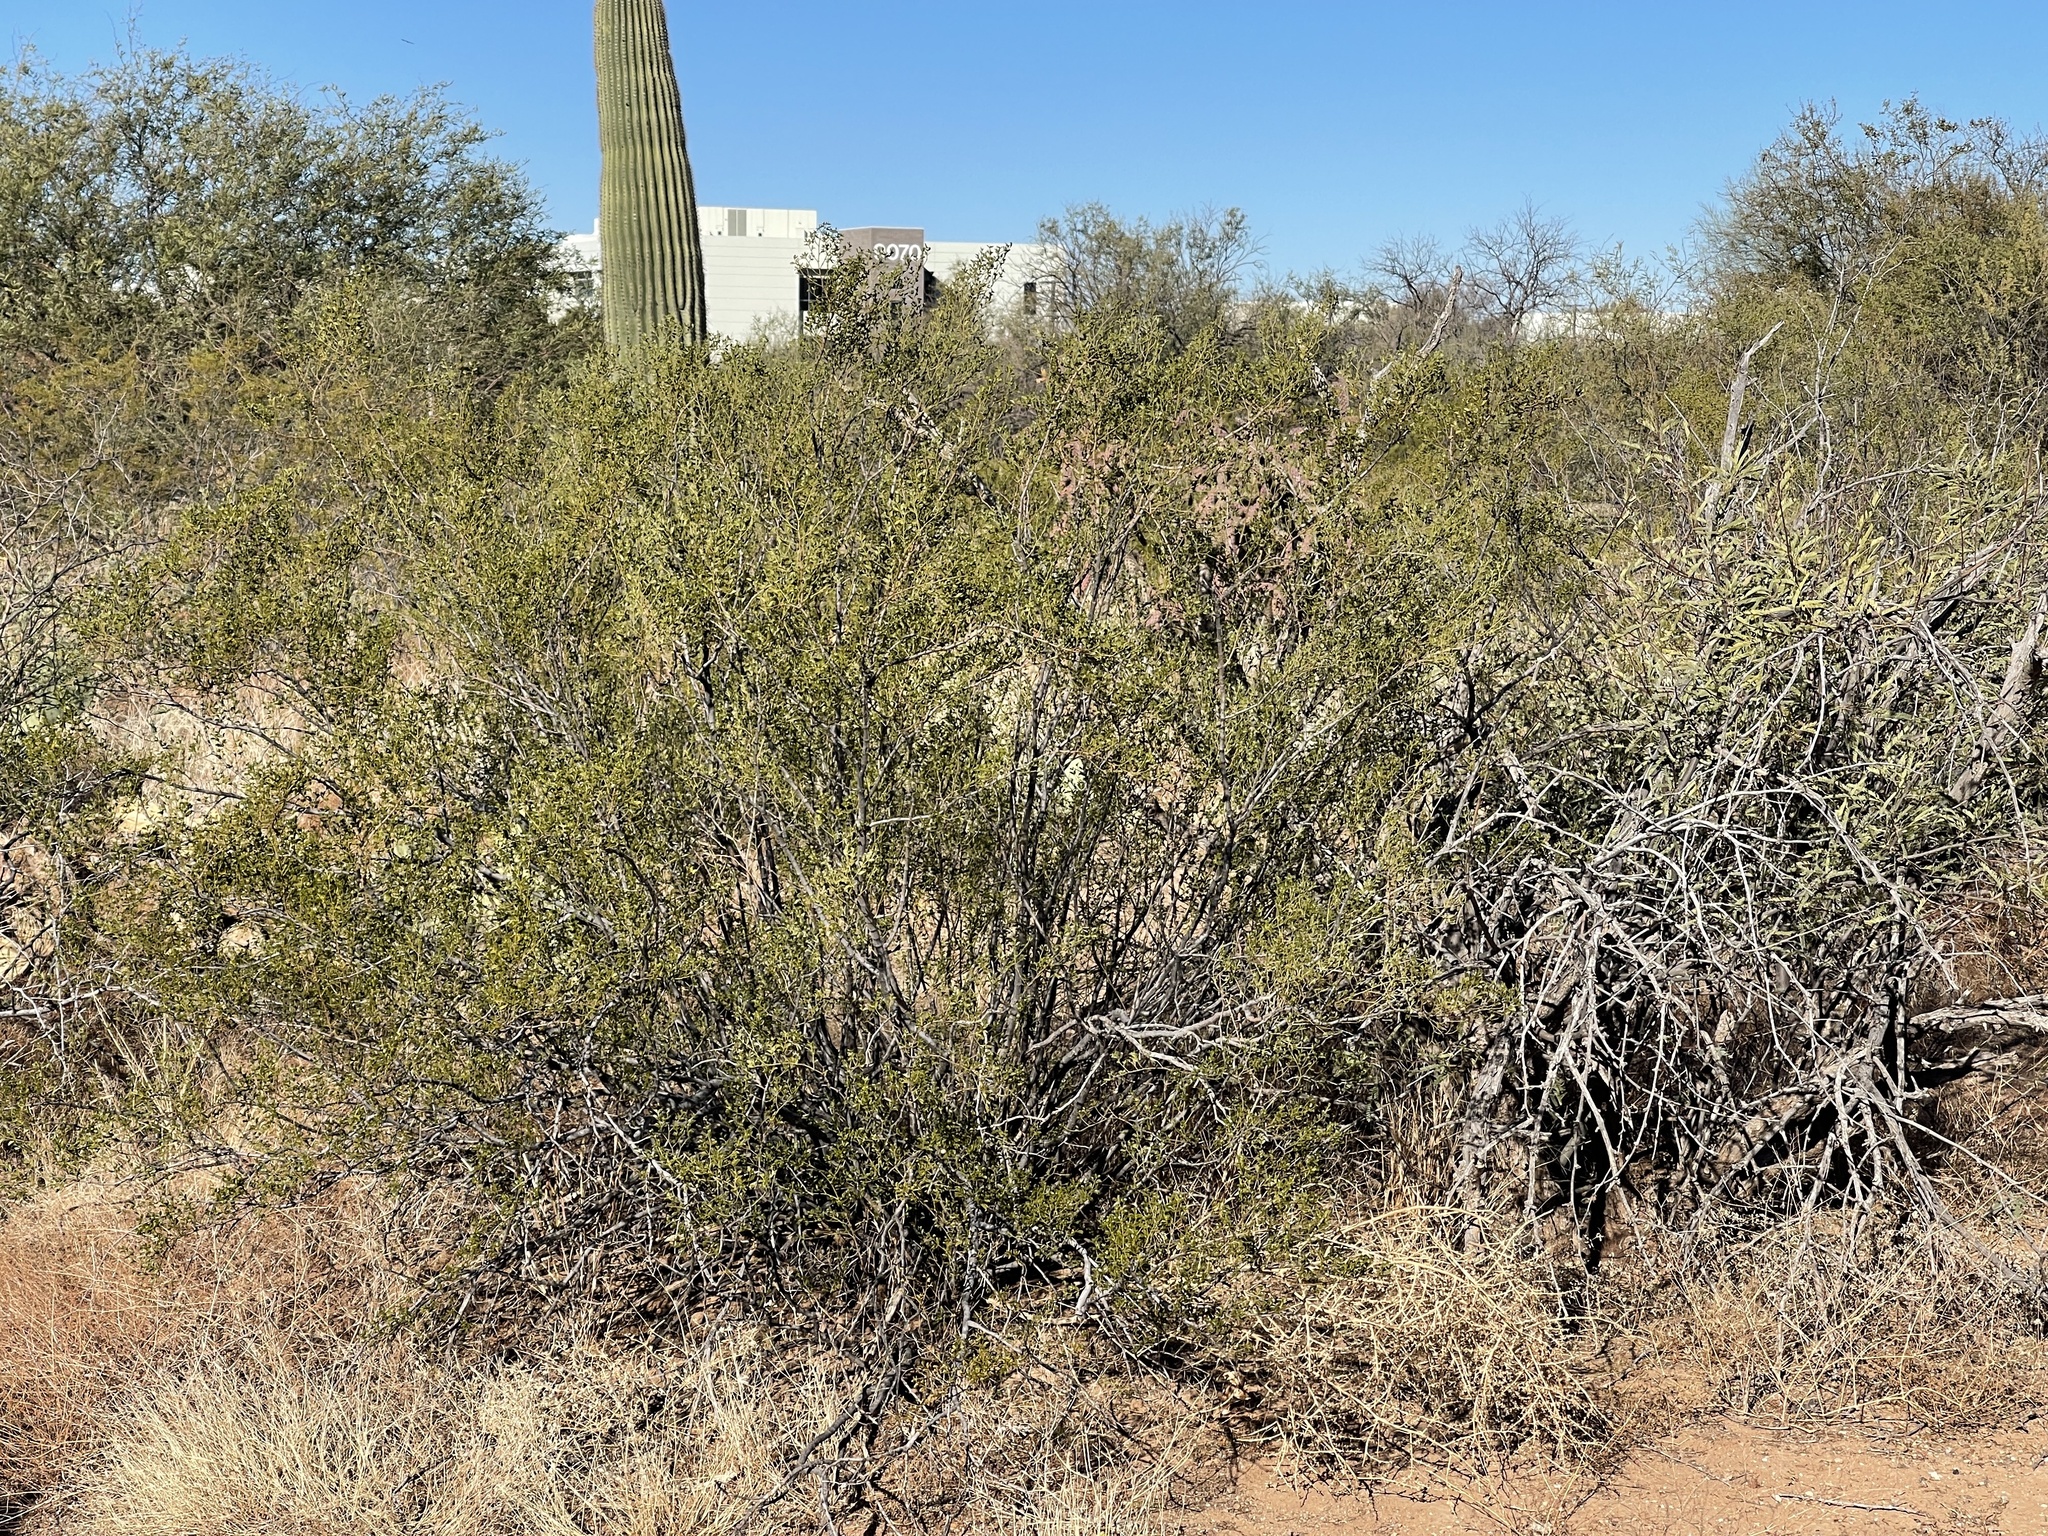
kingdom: Plantae
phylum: Tracheophyta
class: Magnoliopsida
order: Zygophyllales
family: Zygophyllaceae
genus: Larrea
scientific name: Larrea tridentata
